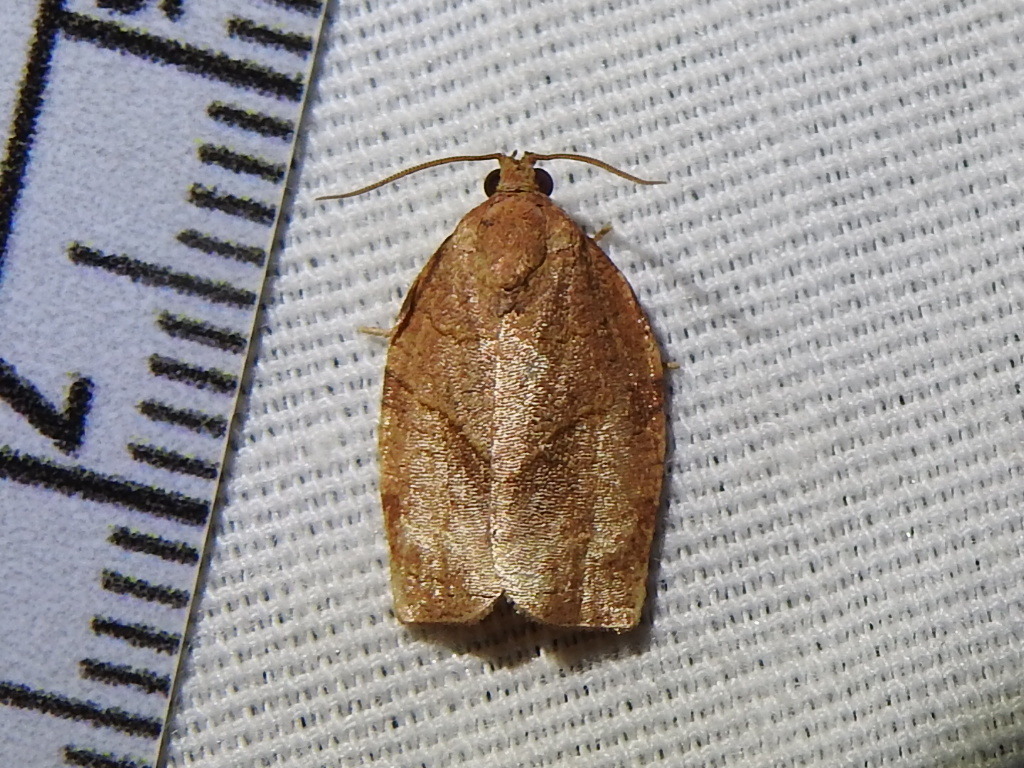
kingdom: Animalia
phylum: Arthropoda
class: Insecta
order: Lepidoptera
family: Tortricidae
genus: Choristoneura
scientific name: Choristoneura rosaceana
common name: Oblique-banded leafroller moth
